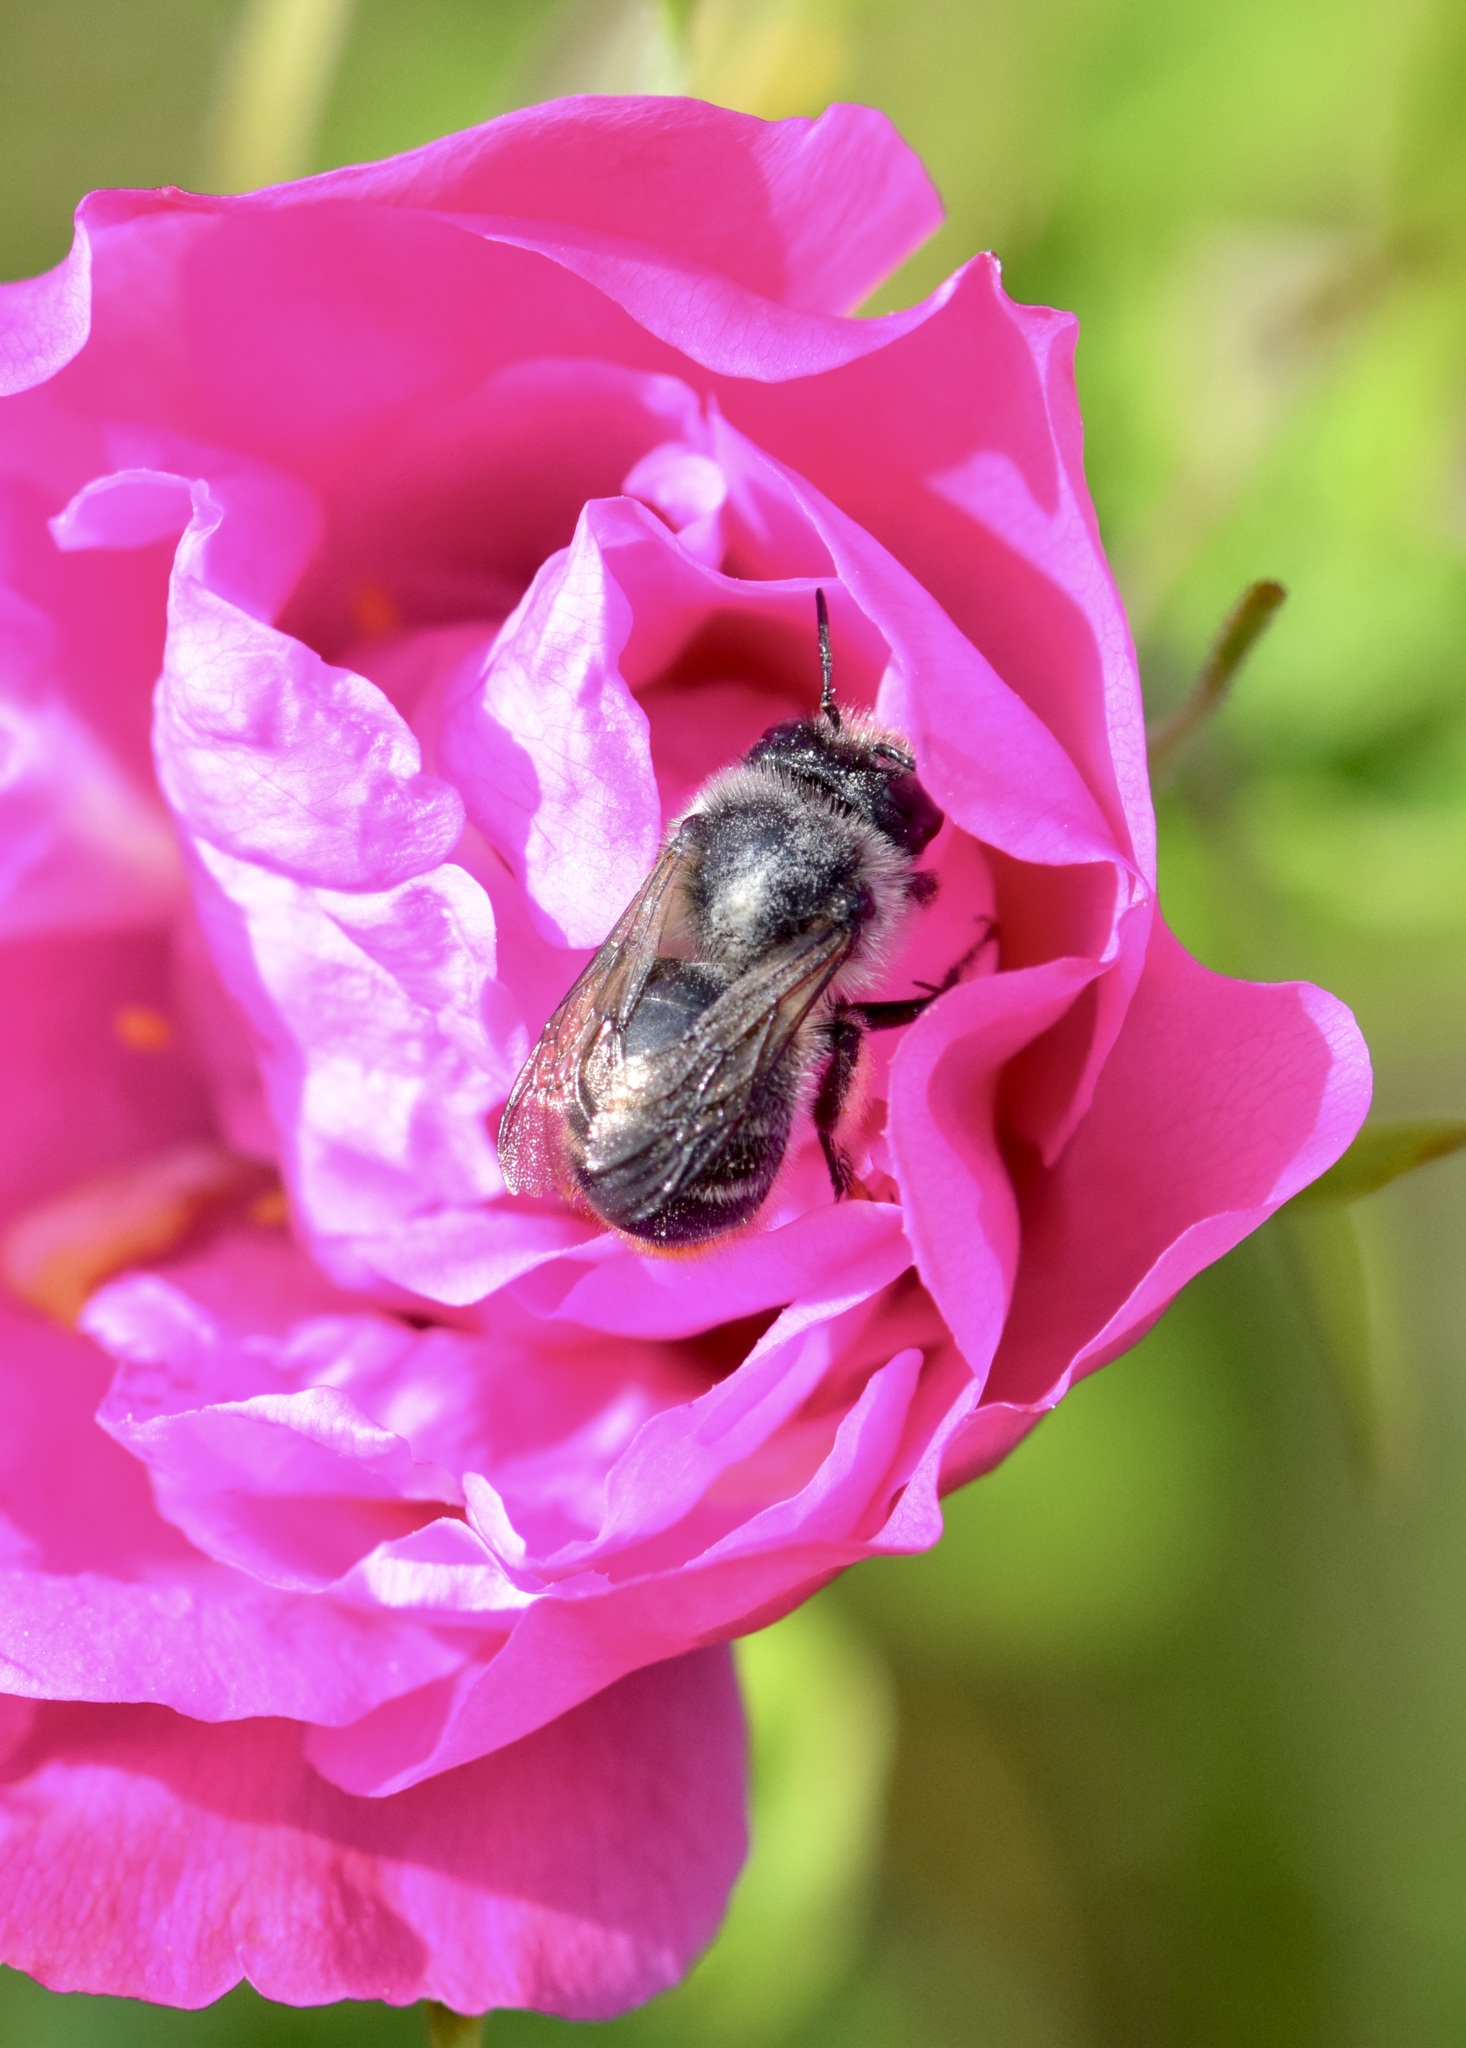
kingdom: Animalia
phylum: Arthropoda
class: Insecta
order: Hymenoptera
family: Apidae
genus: Anthophora
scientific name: Anthophora terminalis
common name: Orange-tipped wood-digger bee
